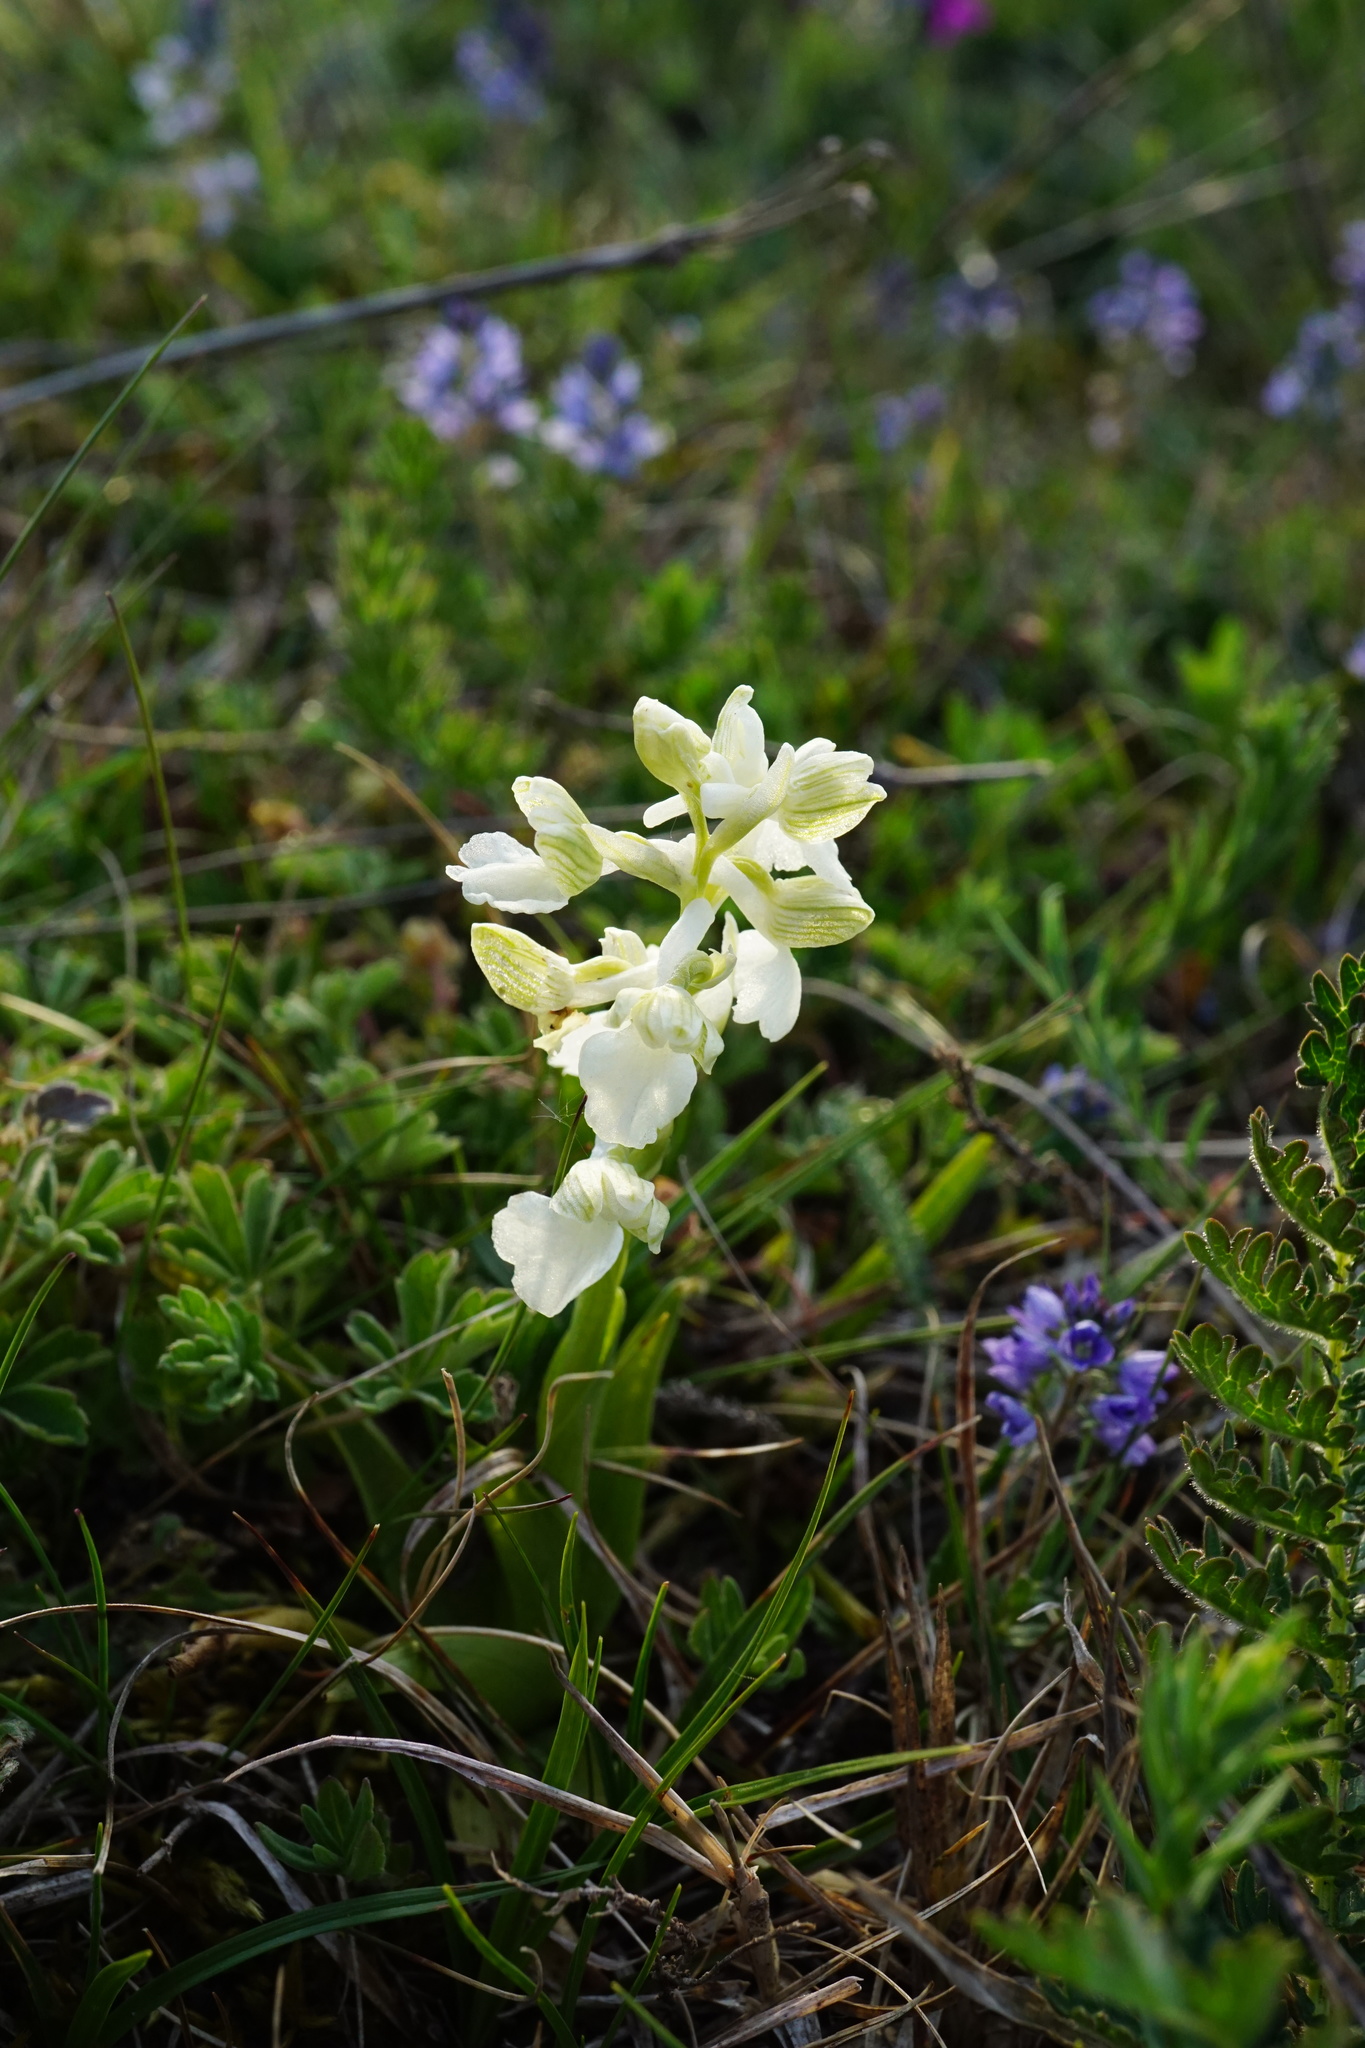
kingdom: Plantae
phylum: Tracheophyta
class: Liliopsida
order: Asparagales
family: Orchidaceae
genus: Anacamptis
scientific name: Anacamptis morio
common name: Green-winged orchid
